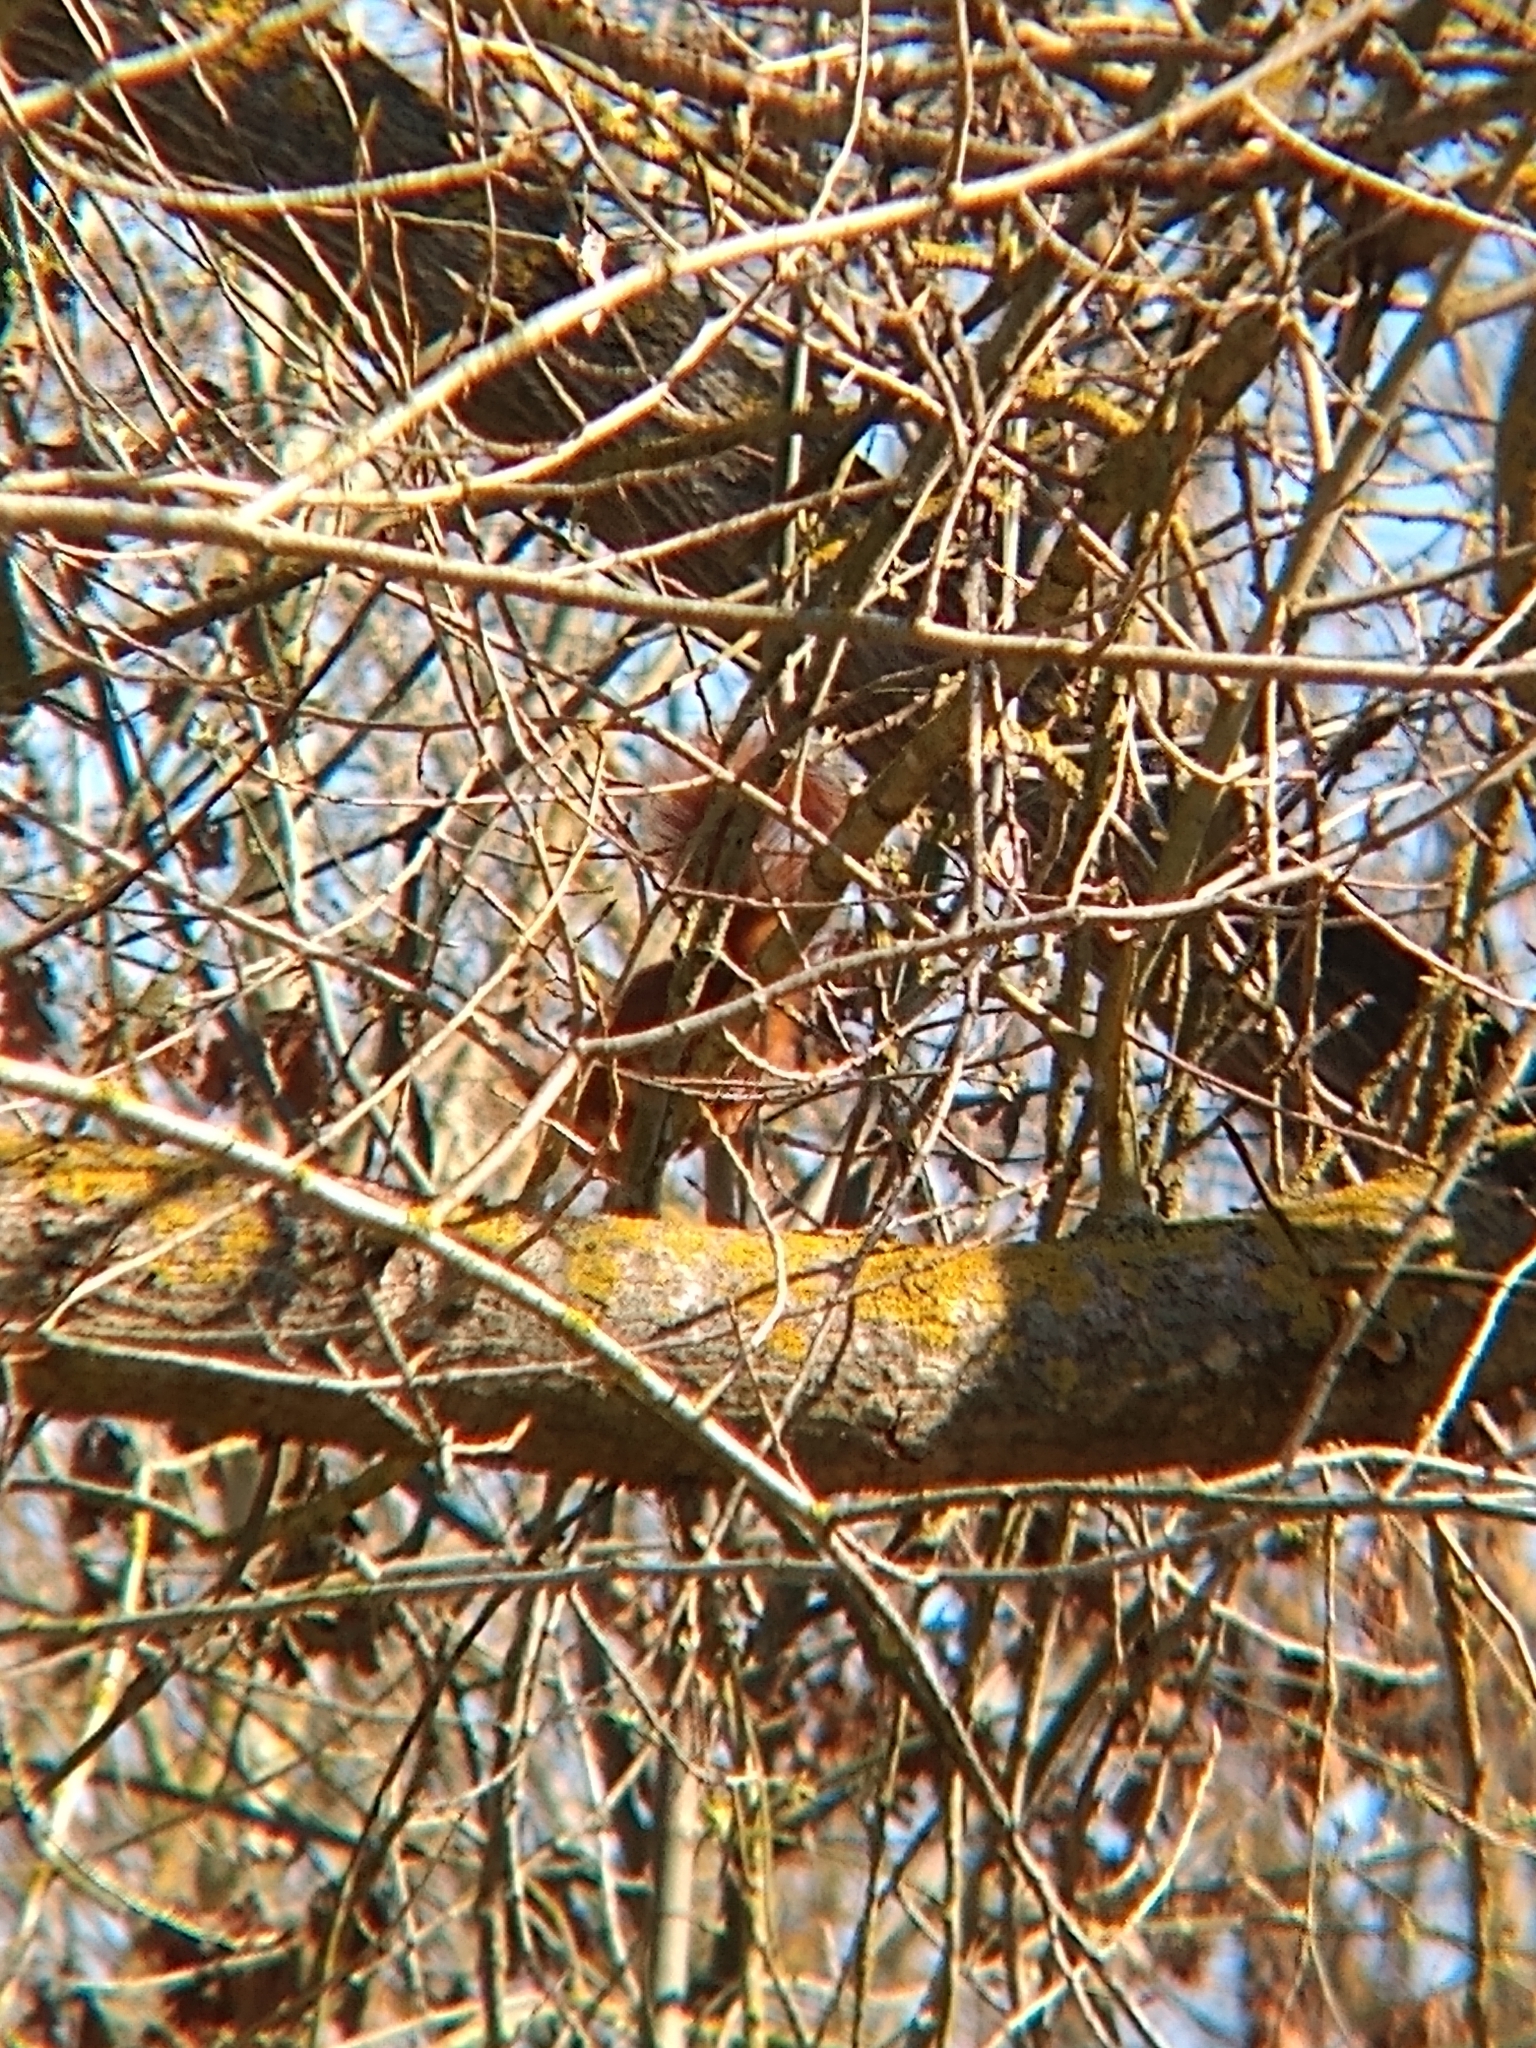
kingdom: Animalia
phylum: Chordata
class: Mammalia
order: Rodentia
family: Sciuridae
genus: Sciurus
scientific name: Sciurus vulgaris
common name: Eurasian red squirrel
